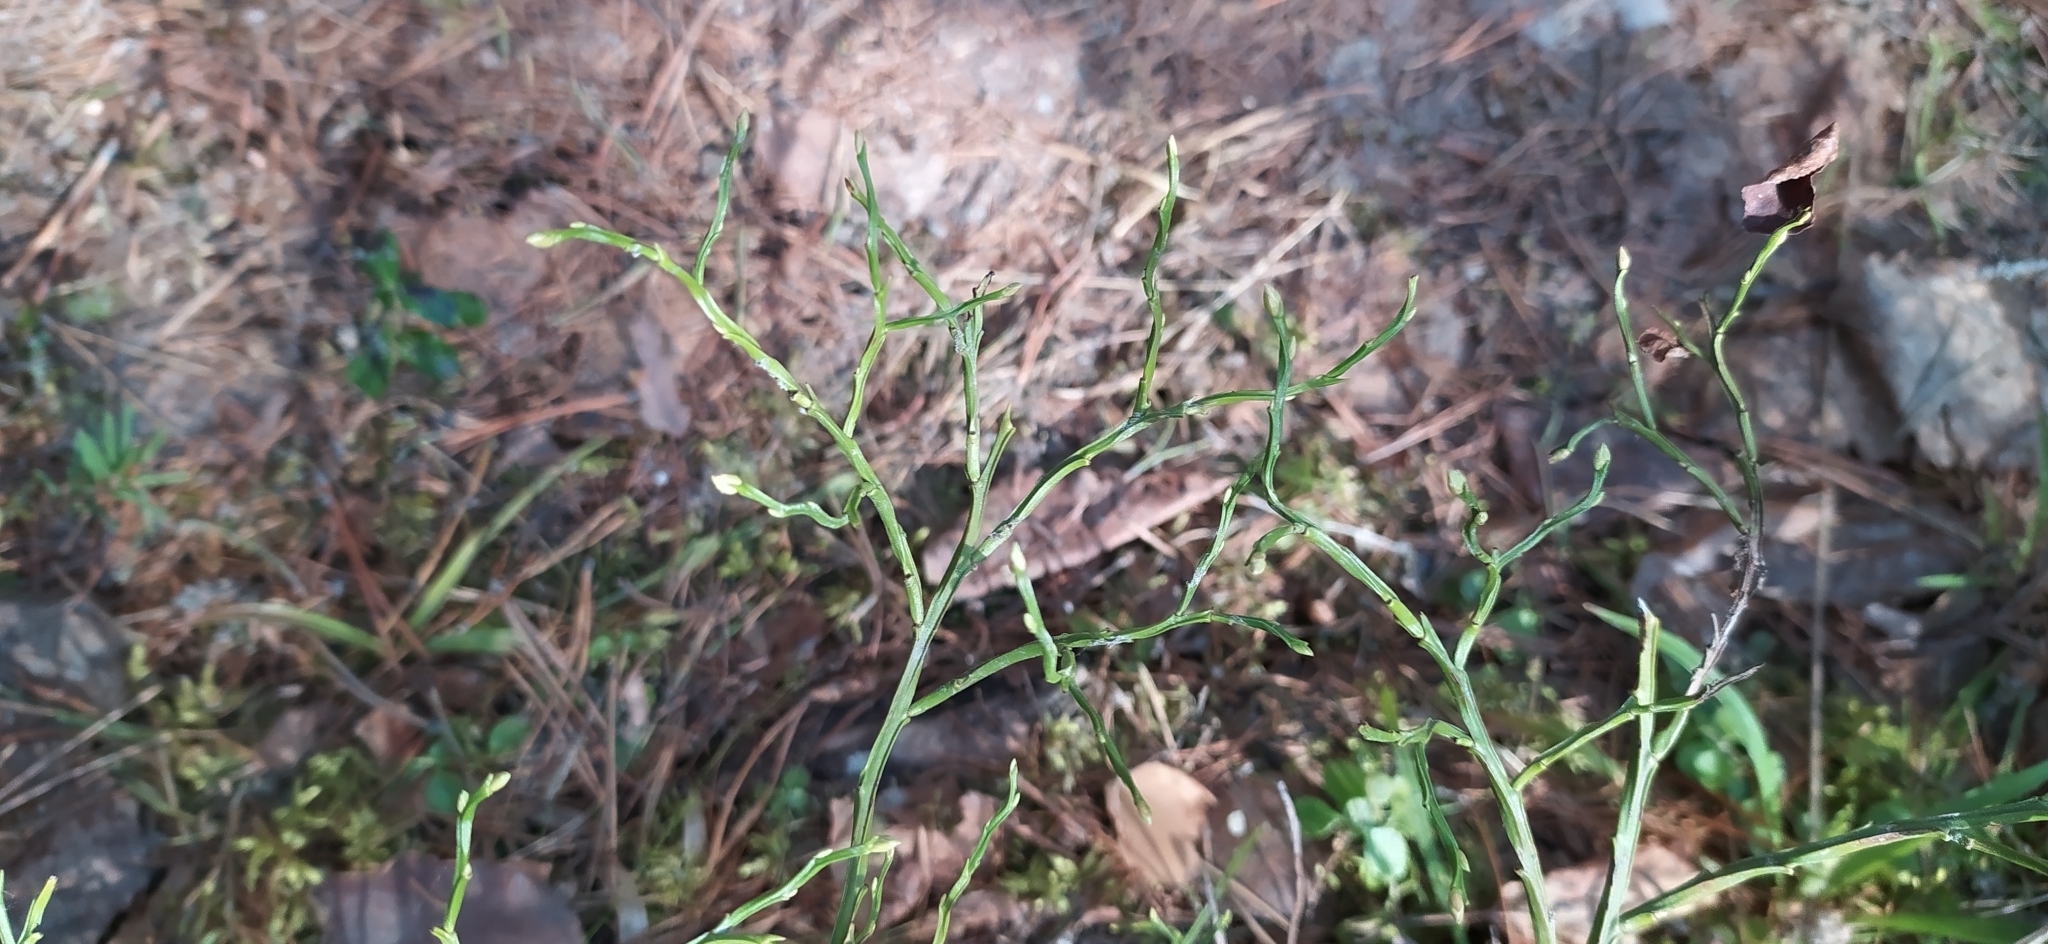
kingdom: Plantae
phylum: Tracheophyta
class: Magnoliopsida
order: Ericales
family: Ericaceae
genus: Vaccinium
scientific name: Vaccinium myrtillus
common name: Bilberry
